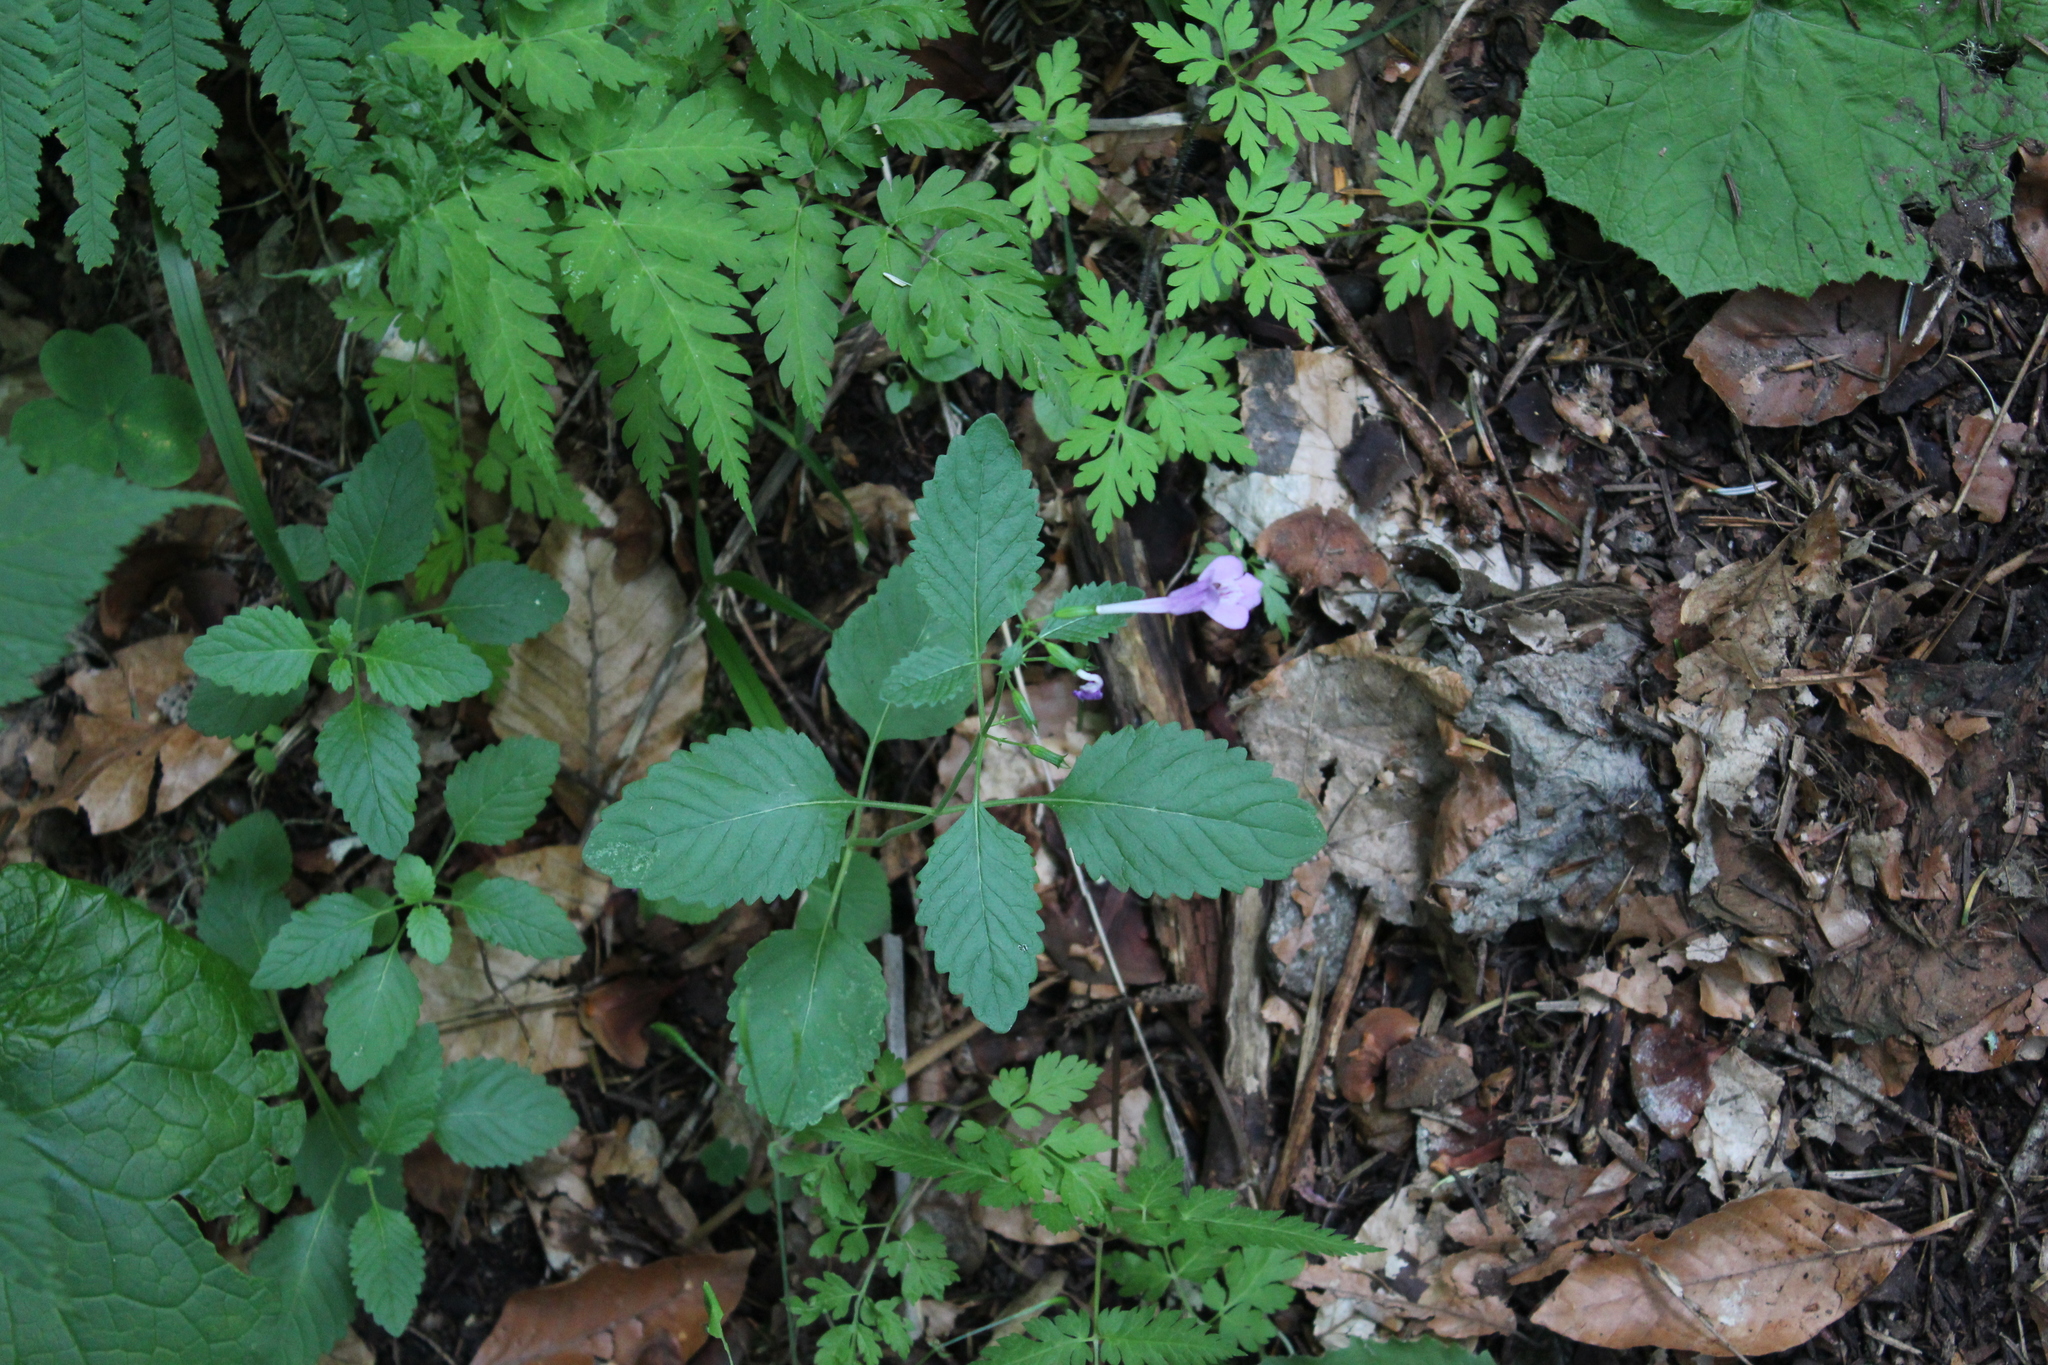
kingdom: Plantae
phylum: Tracheophyta
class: Magnoliopsida
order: Lamiales
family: Lamiaceae
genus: Clinopodium
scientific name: Clinopodium grandiflorum
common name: Greater calamint
